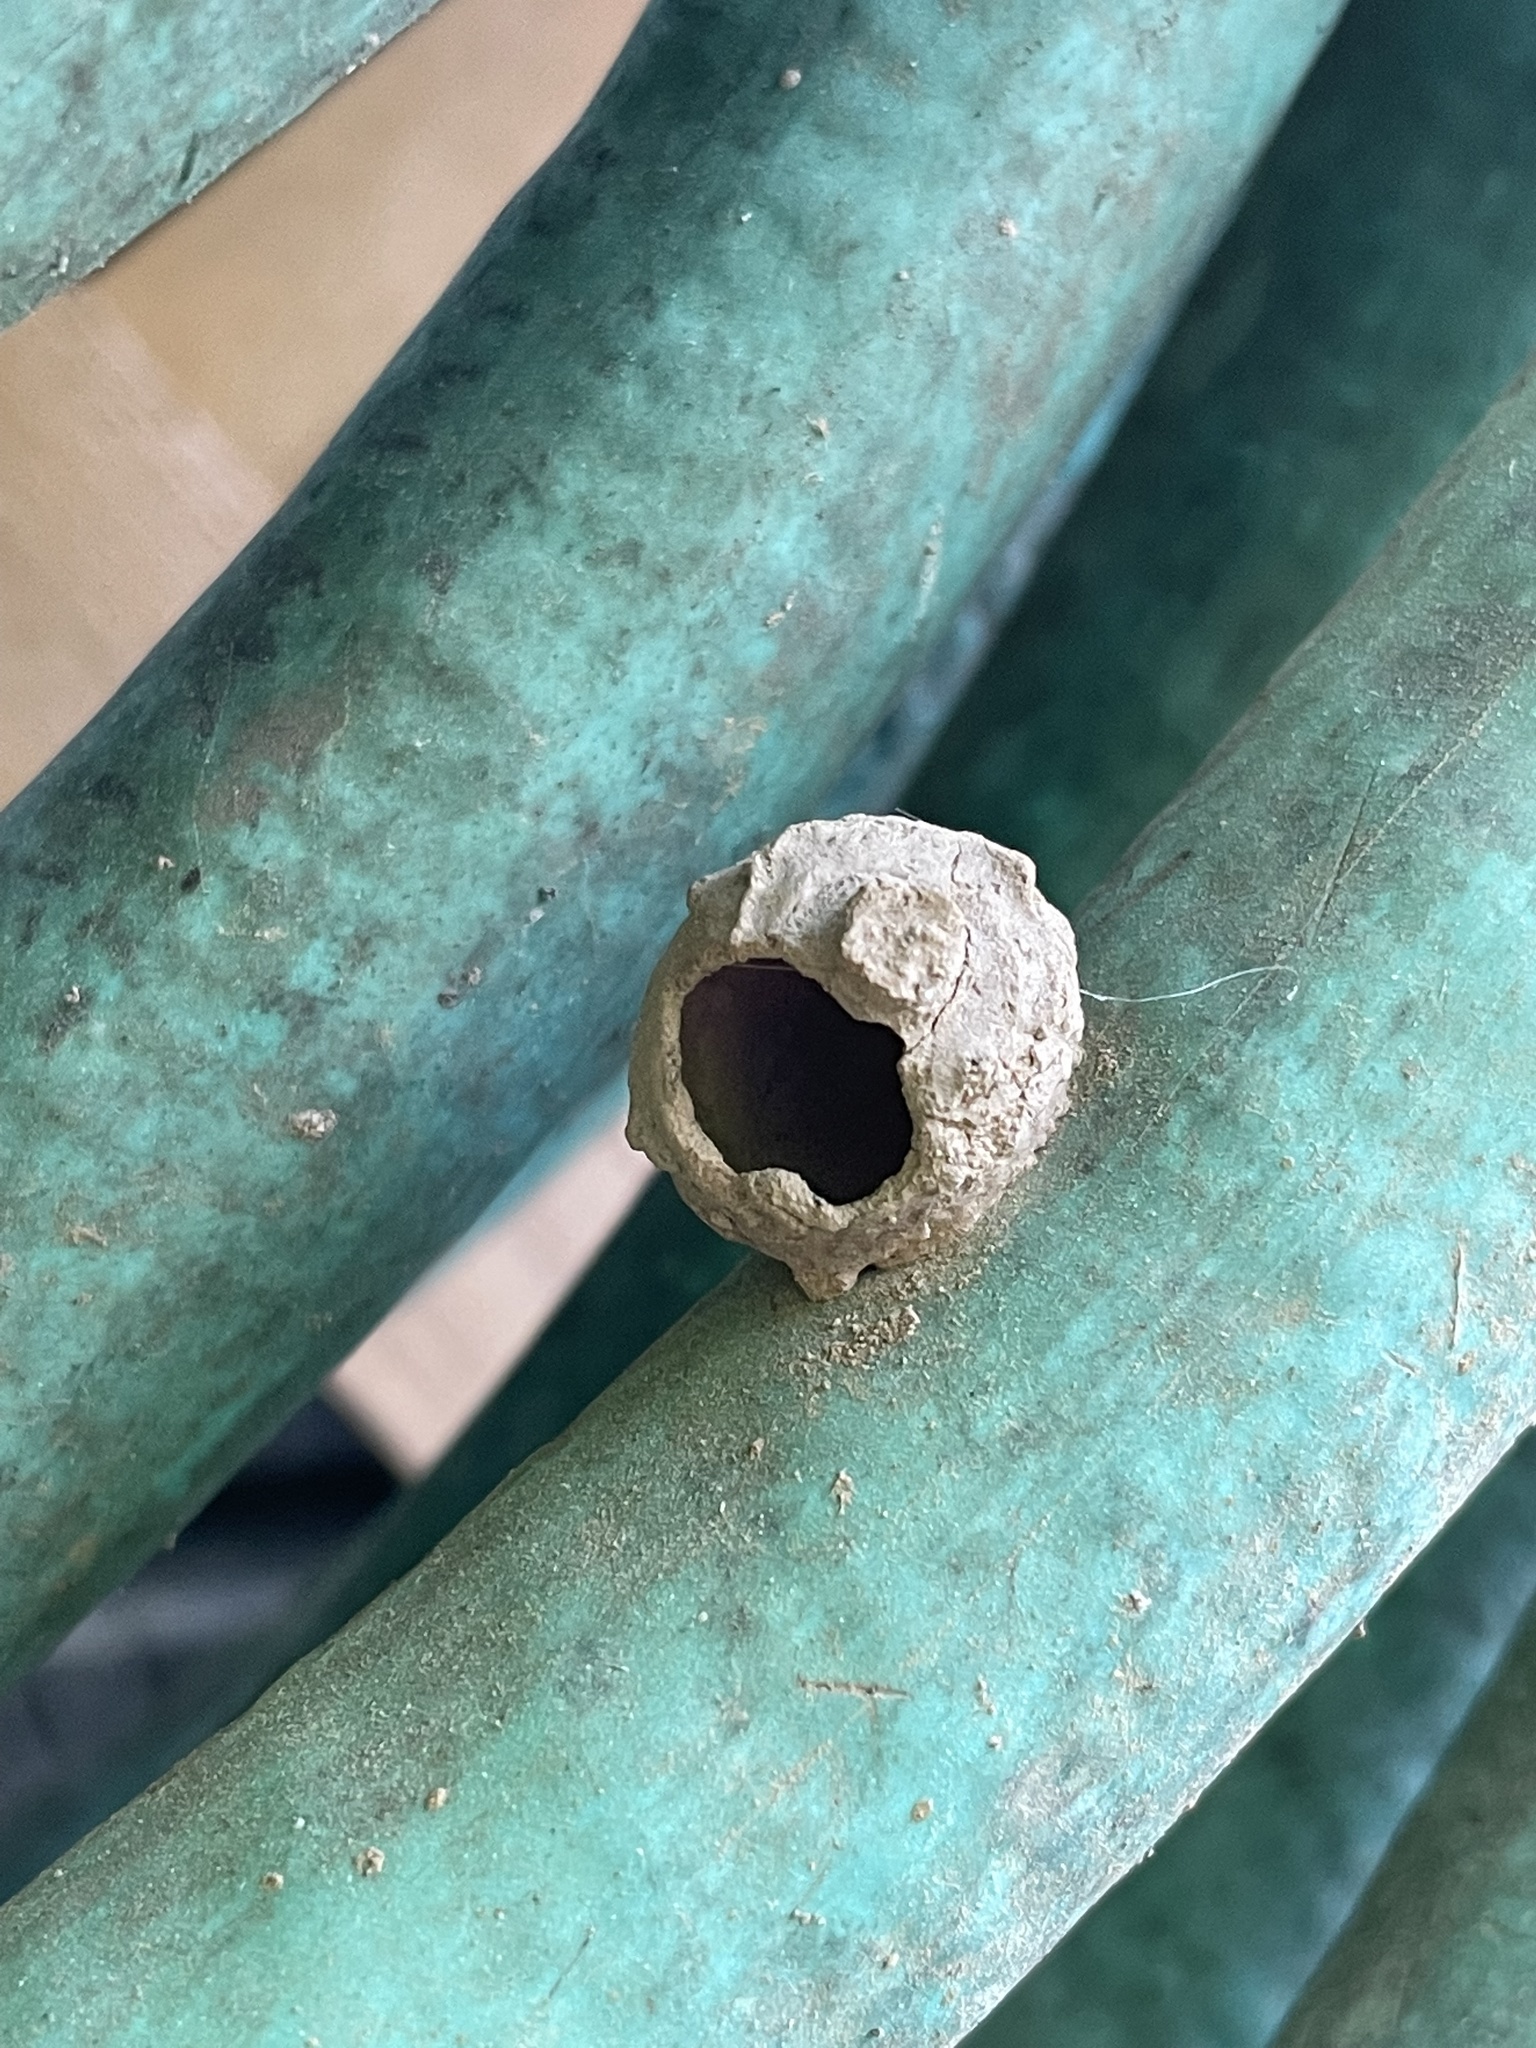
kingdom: Animalia
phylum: Arthropoda
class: Insecta
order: Hymenoptera
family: Vespidae
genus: Eumenes
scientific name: Eumenes
